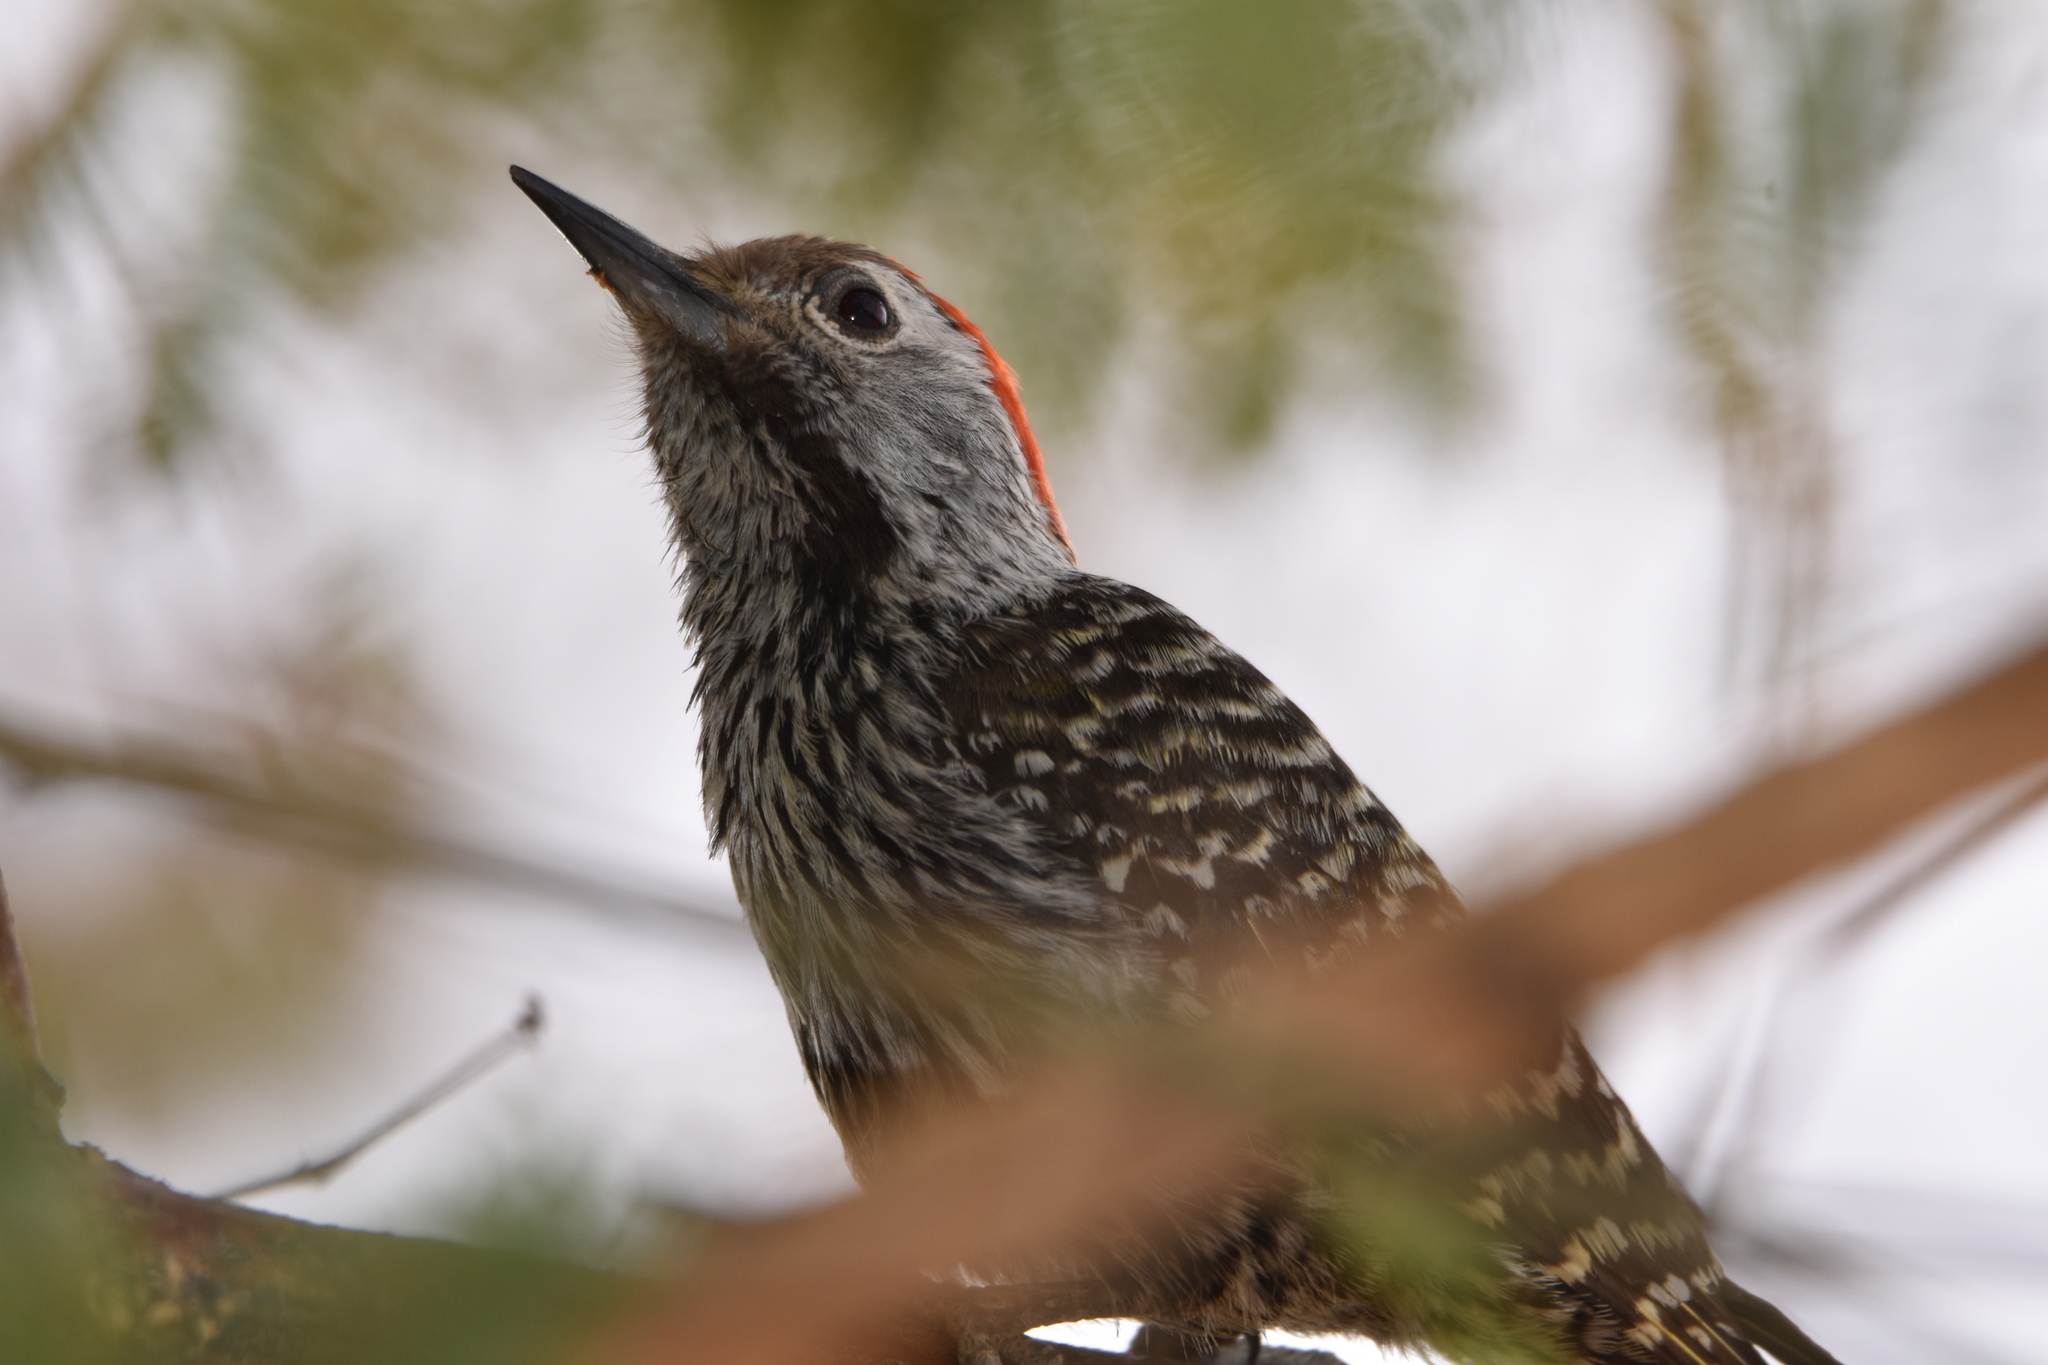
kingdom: Animalia
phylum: Chordata
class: Aves
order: Piciformes
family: Picidae
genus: Dendropicos
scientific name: Dendropicos fuscescens
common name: Cardinal woodpecker
